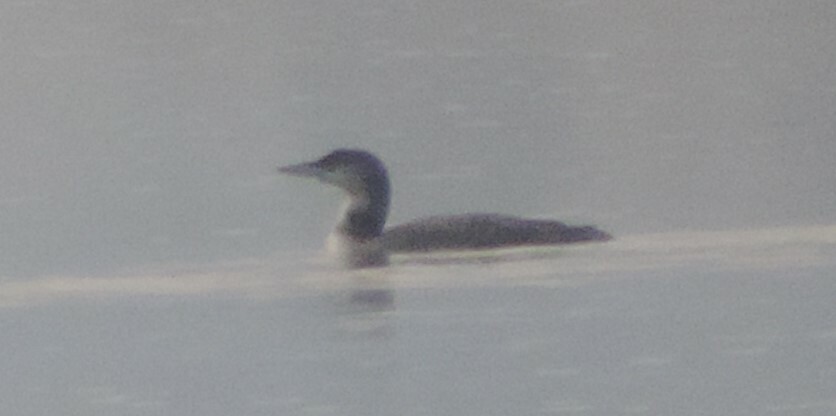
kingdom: Animalia
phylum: Chordata
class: Aves
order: Gaviiformes
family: Gaviidae
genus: Gavia
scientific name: Gavia immer
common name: Common loon
